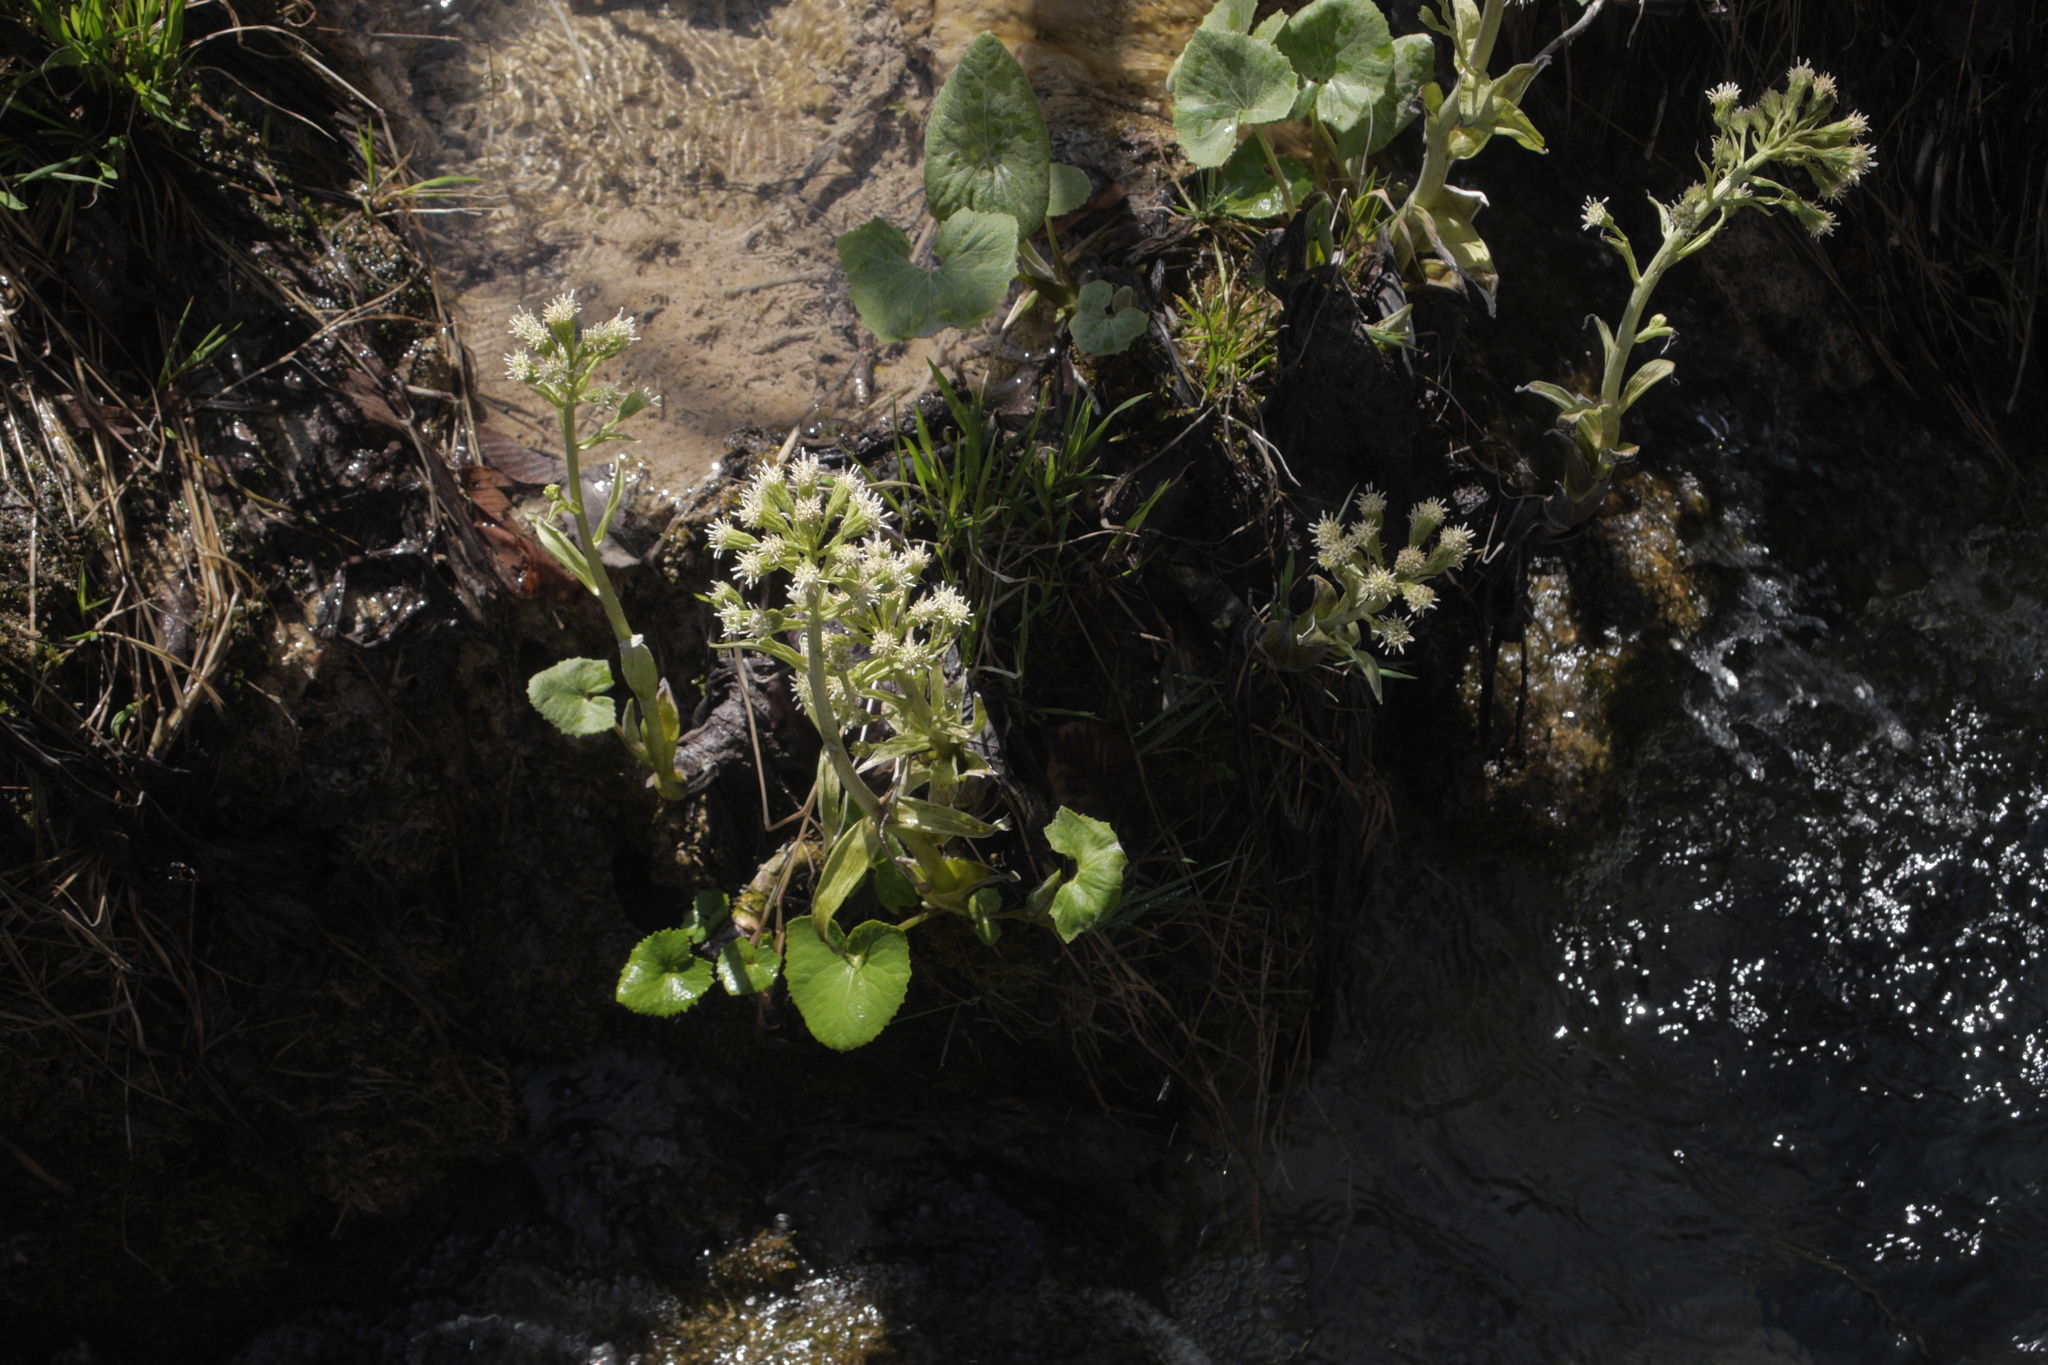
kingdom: Plantae
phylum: Tracheophyta
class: Magnoliopsida
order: Asterales
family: Asteraceae
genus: Petasites
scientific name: Petasites albus
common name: White butterbur
